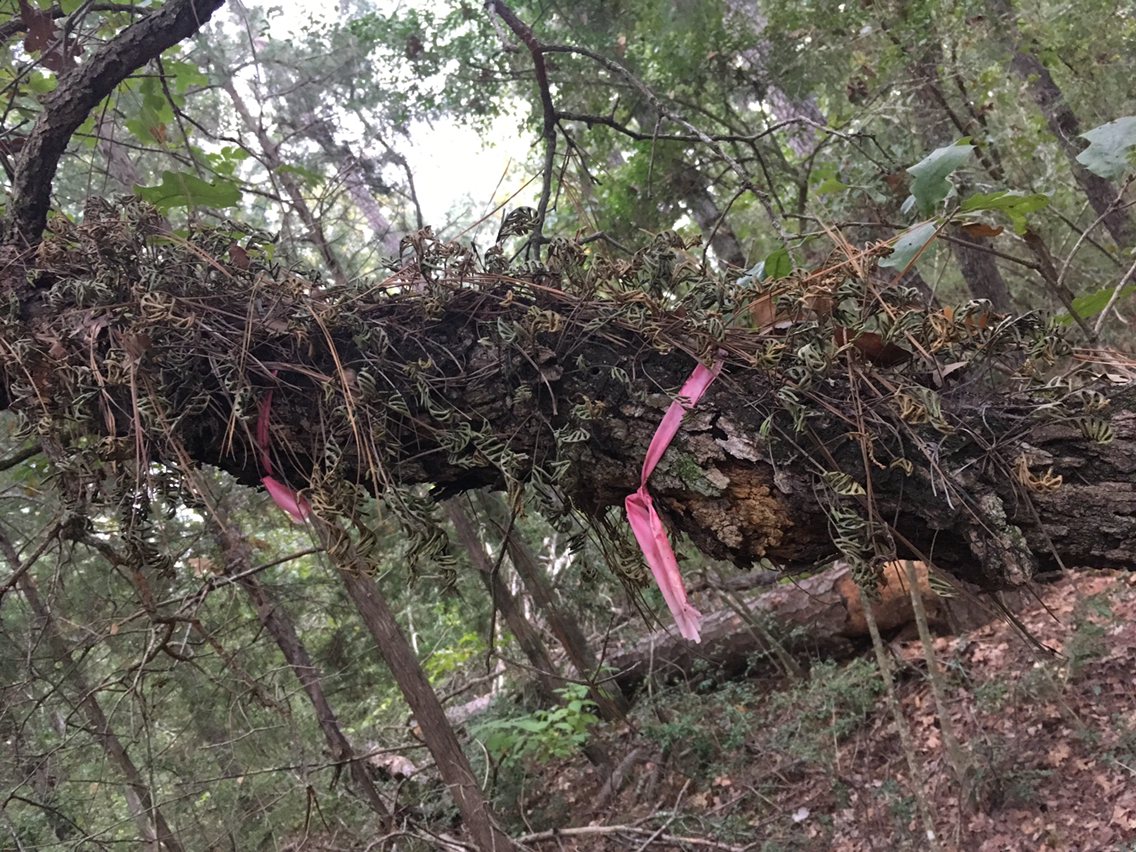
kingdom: Plantae
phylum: Tracheophyta
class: Polypodiopsida
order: Polypodiales
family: Polypodiaceae
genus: Pleopeltis
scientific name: Pleopeltis michauxiana
